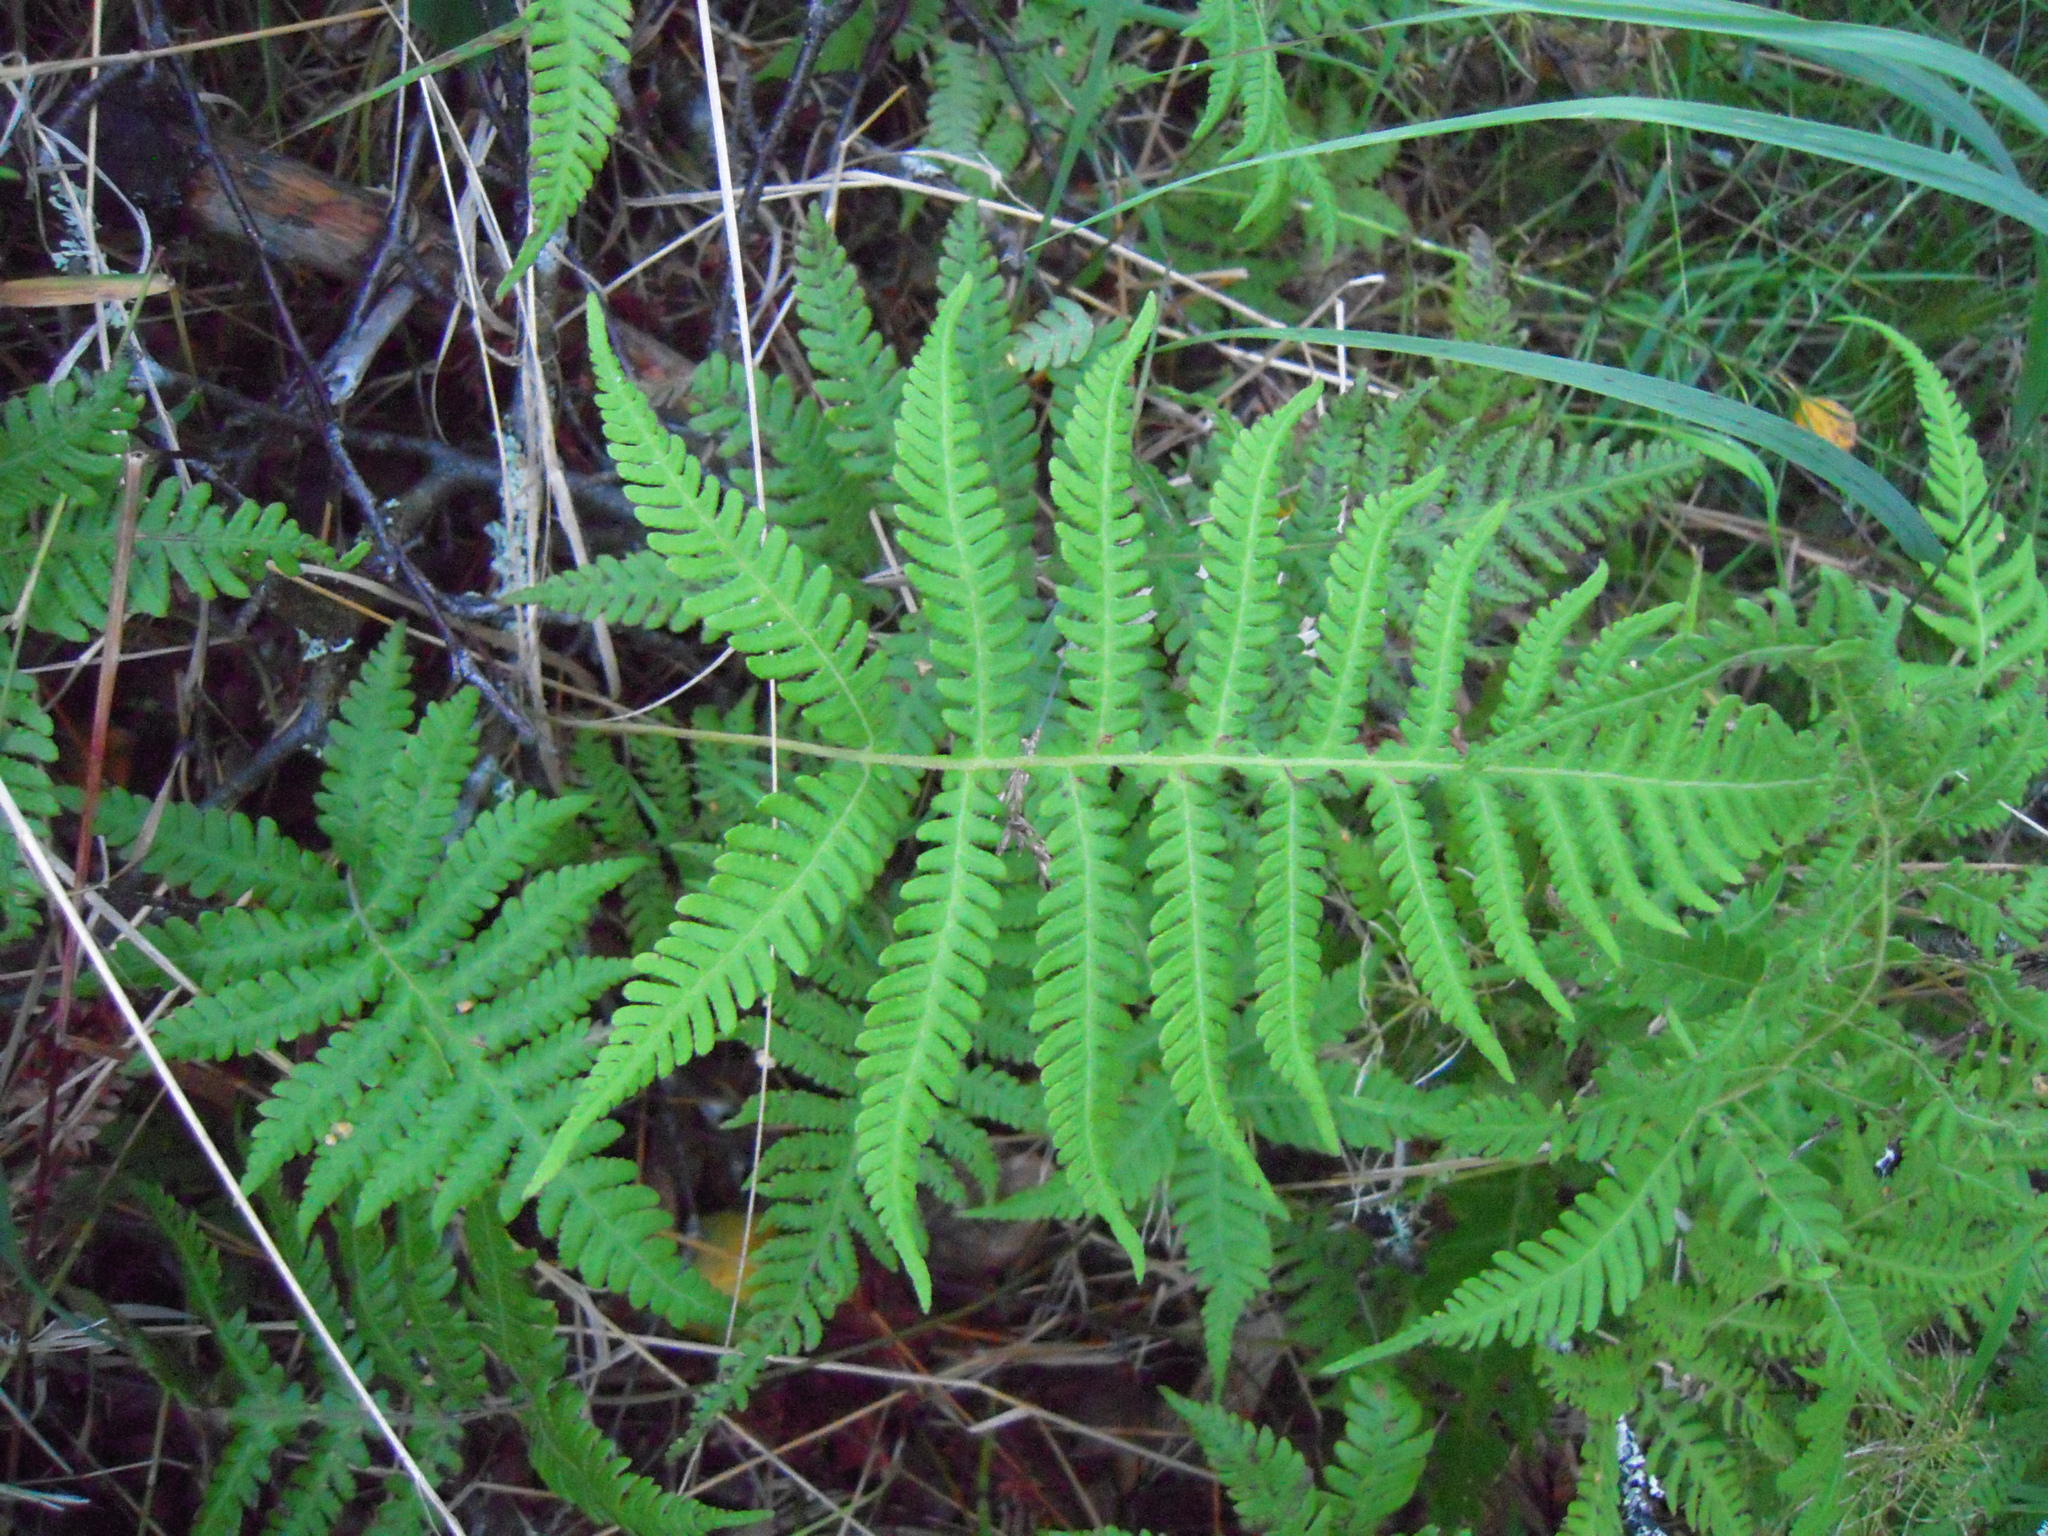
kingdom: Plantae
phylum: Tracheophyta
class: Polypodiopsida
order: Polypodiales
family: Thelypteridaceae
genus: Phegopteris
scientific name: Phegopteris connectilis
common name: Beech fern
